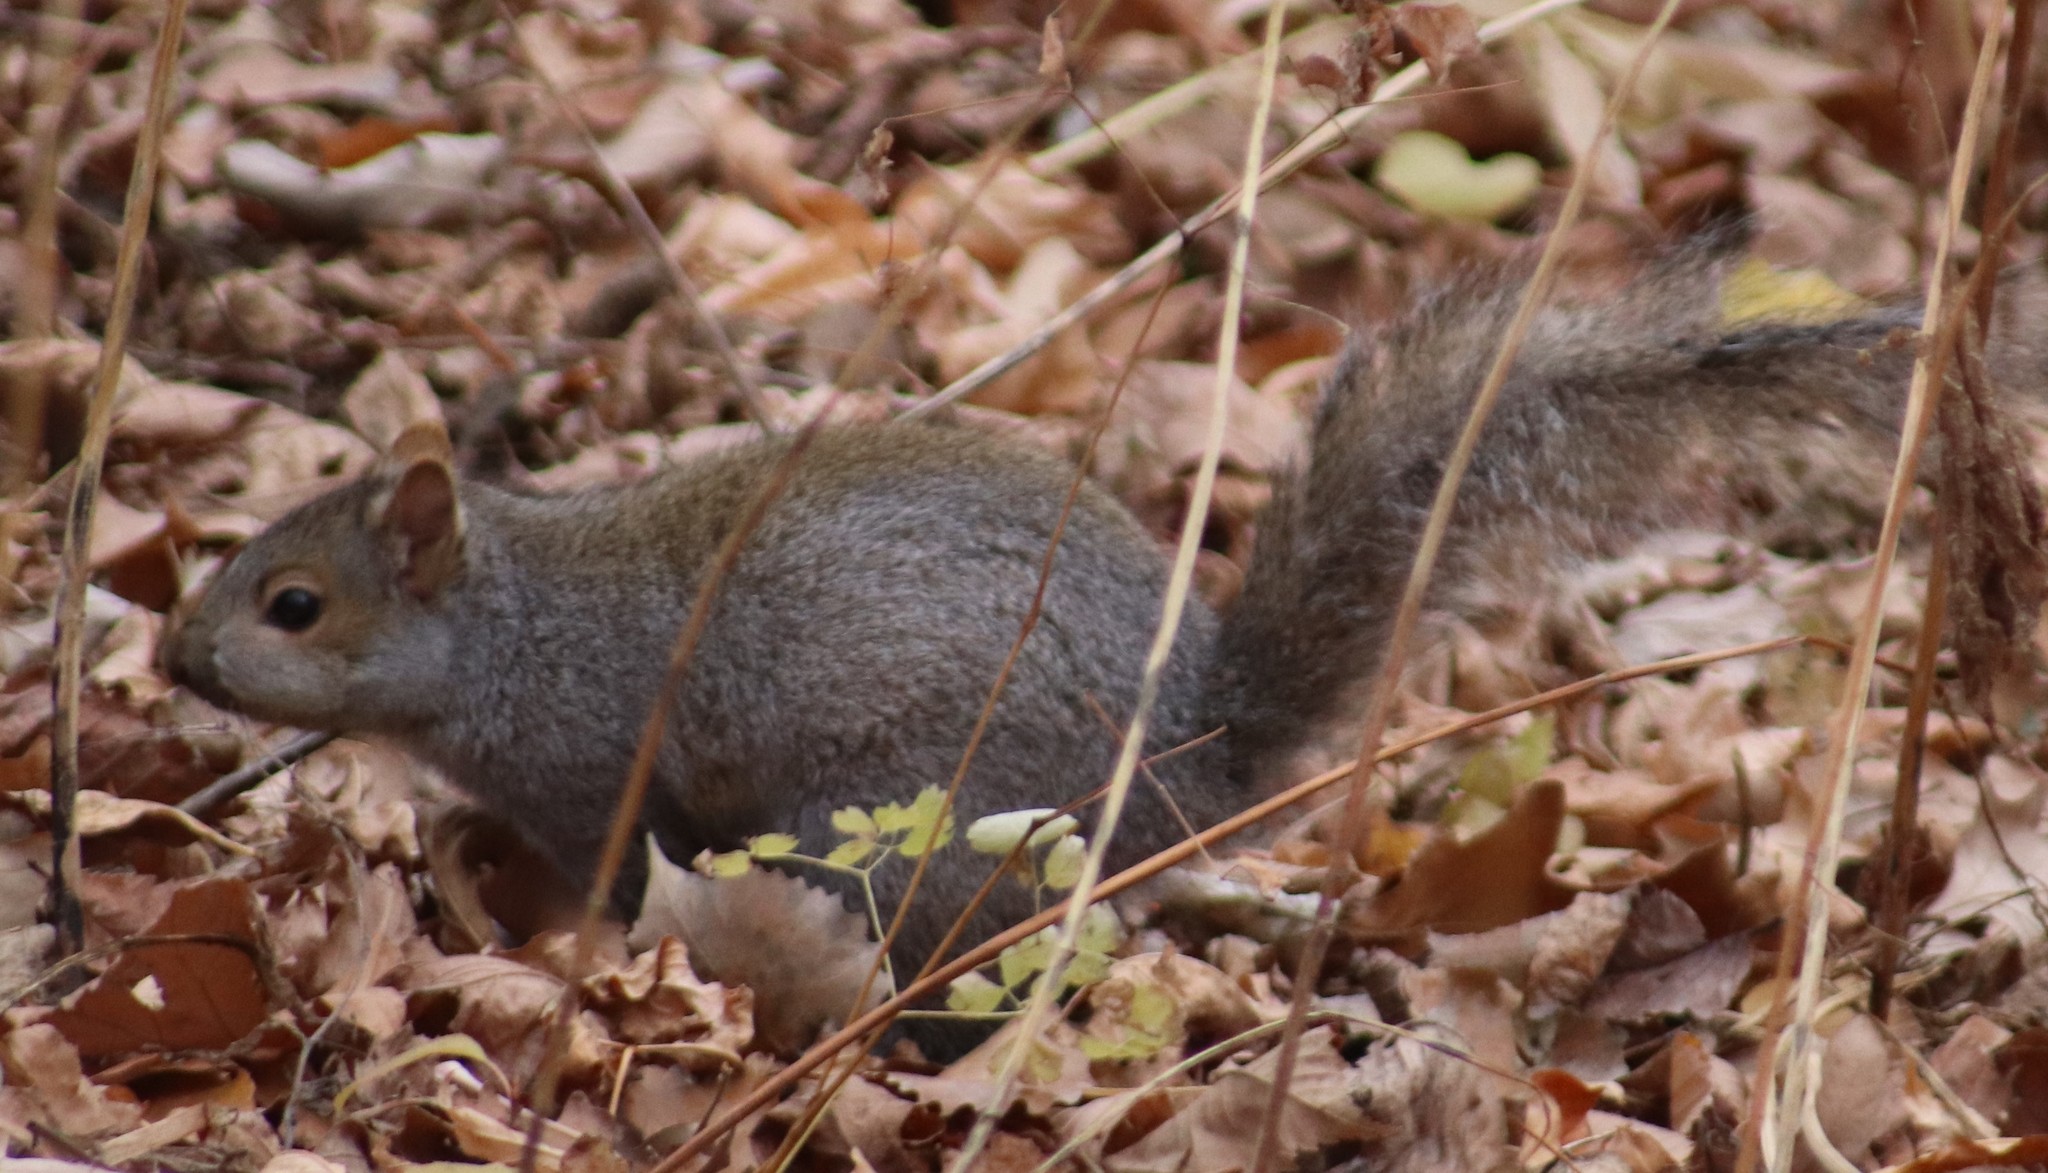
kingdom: Animalia
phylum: Chordata
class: Mammalia
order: Rodentia
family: Sciuridae
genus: Sciurus
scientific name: Sciurus carolinensis
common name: Eastern gray squirrel
